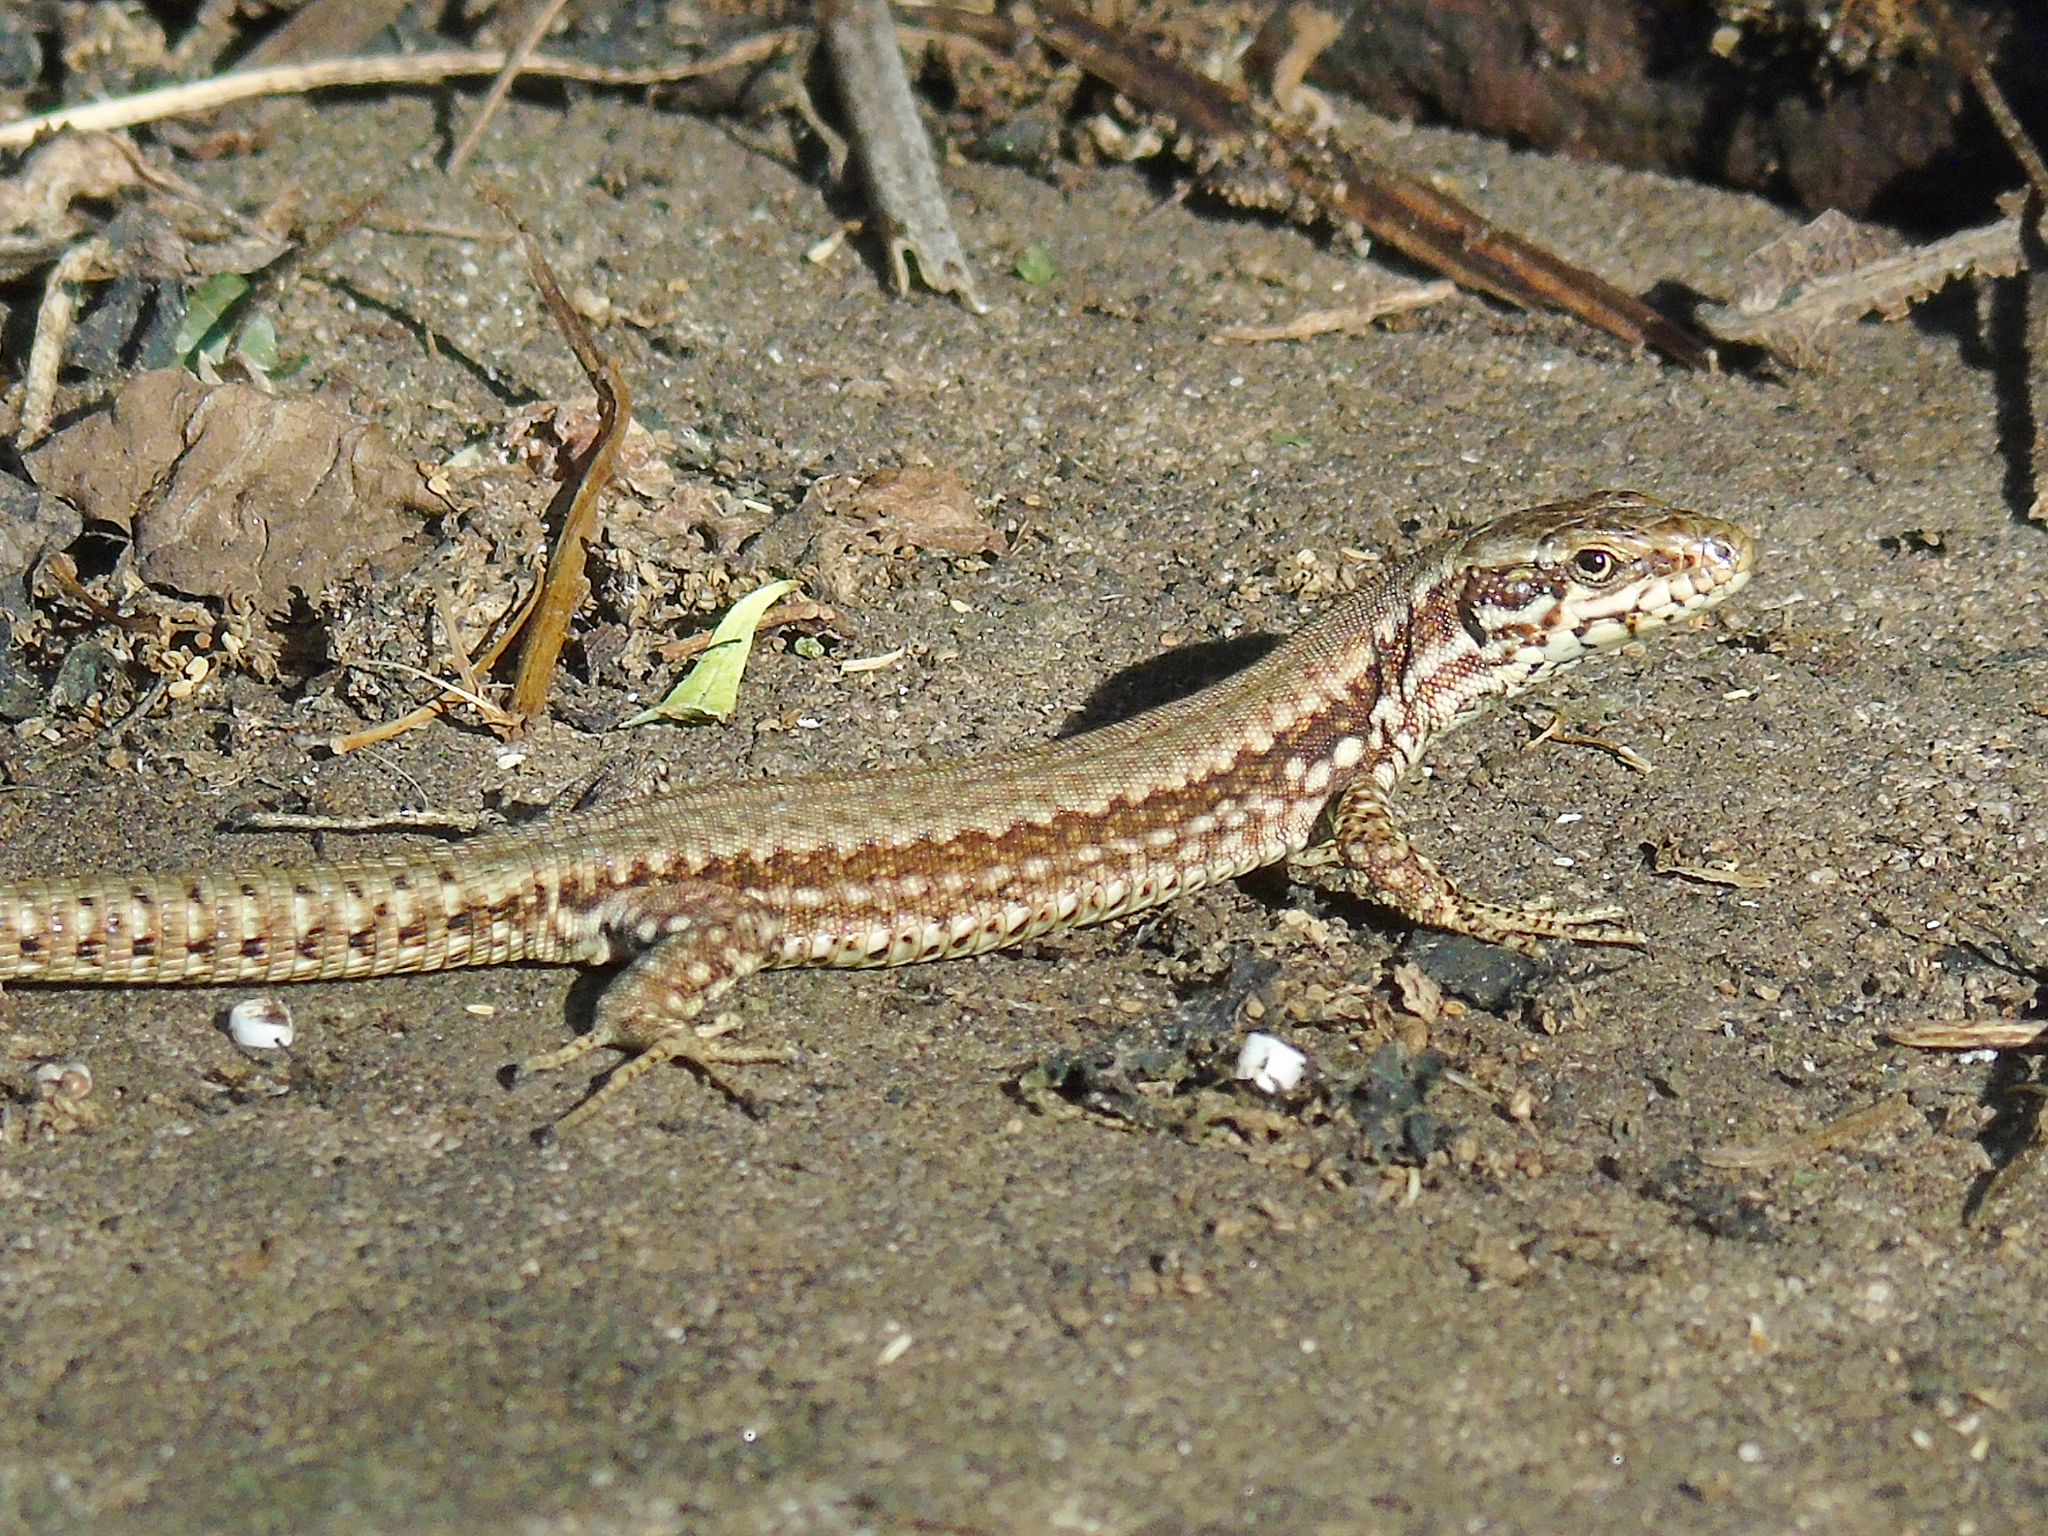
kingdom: Animalia
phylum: Chordata
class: Squamata
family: Lacertidae
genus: Podarcis
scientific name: Podarcis muralis
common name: Common wall lizard
